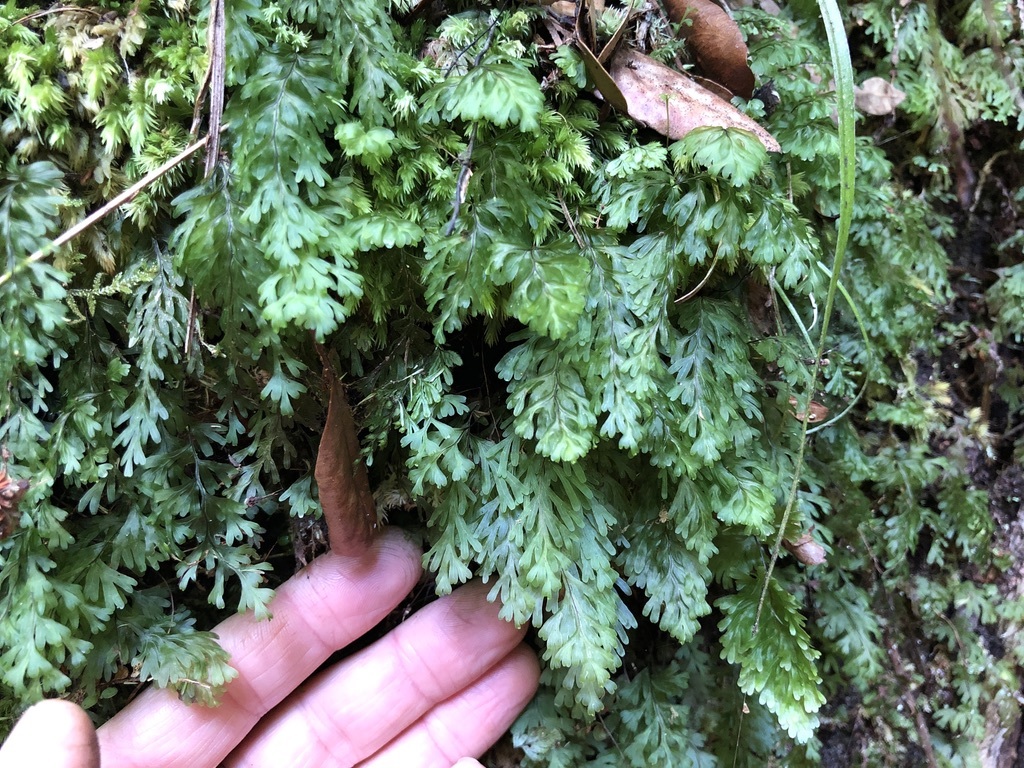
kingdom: Plantae
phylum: Tracheophyta
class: Polypodiopsida
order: Hymenophyllales
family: Hymenophyllaceae
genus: Hymenophyllum
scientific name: Hymenophyllum rarum
